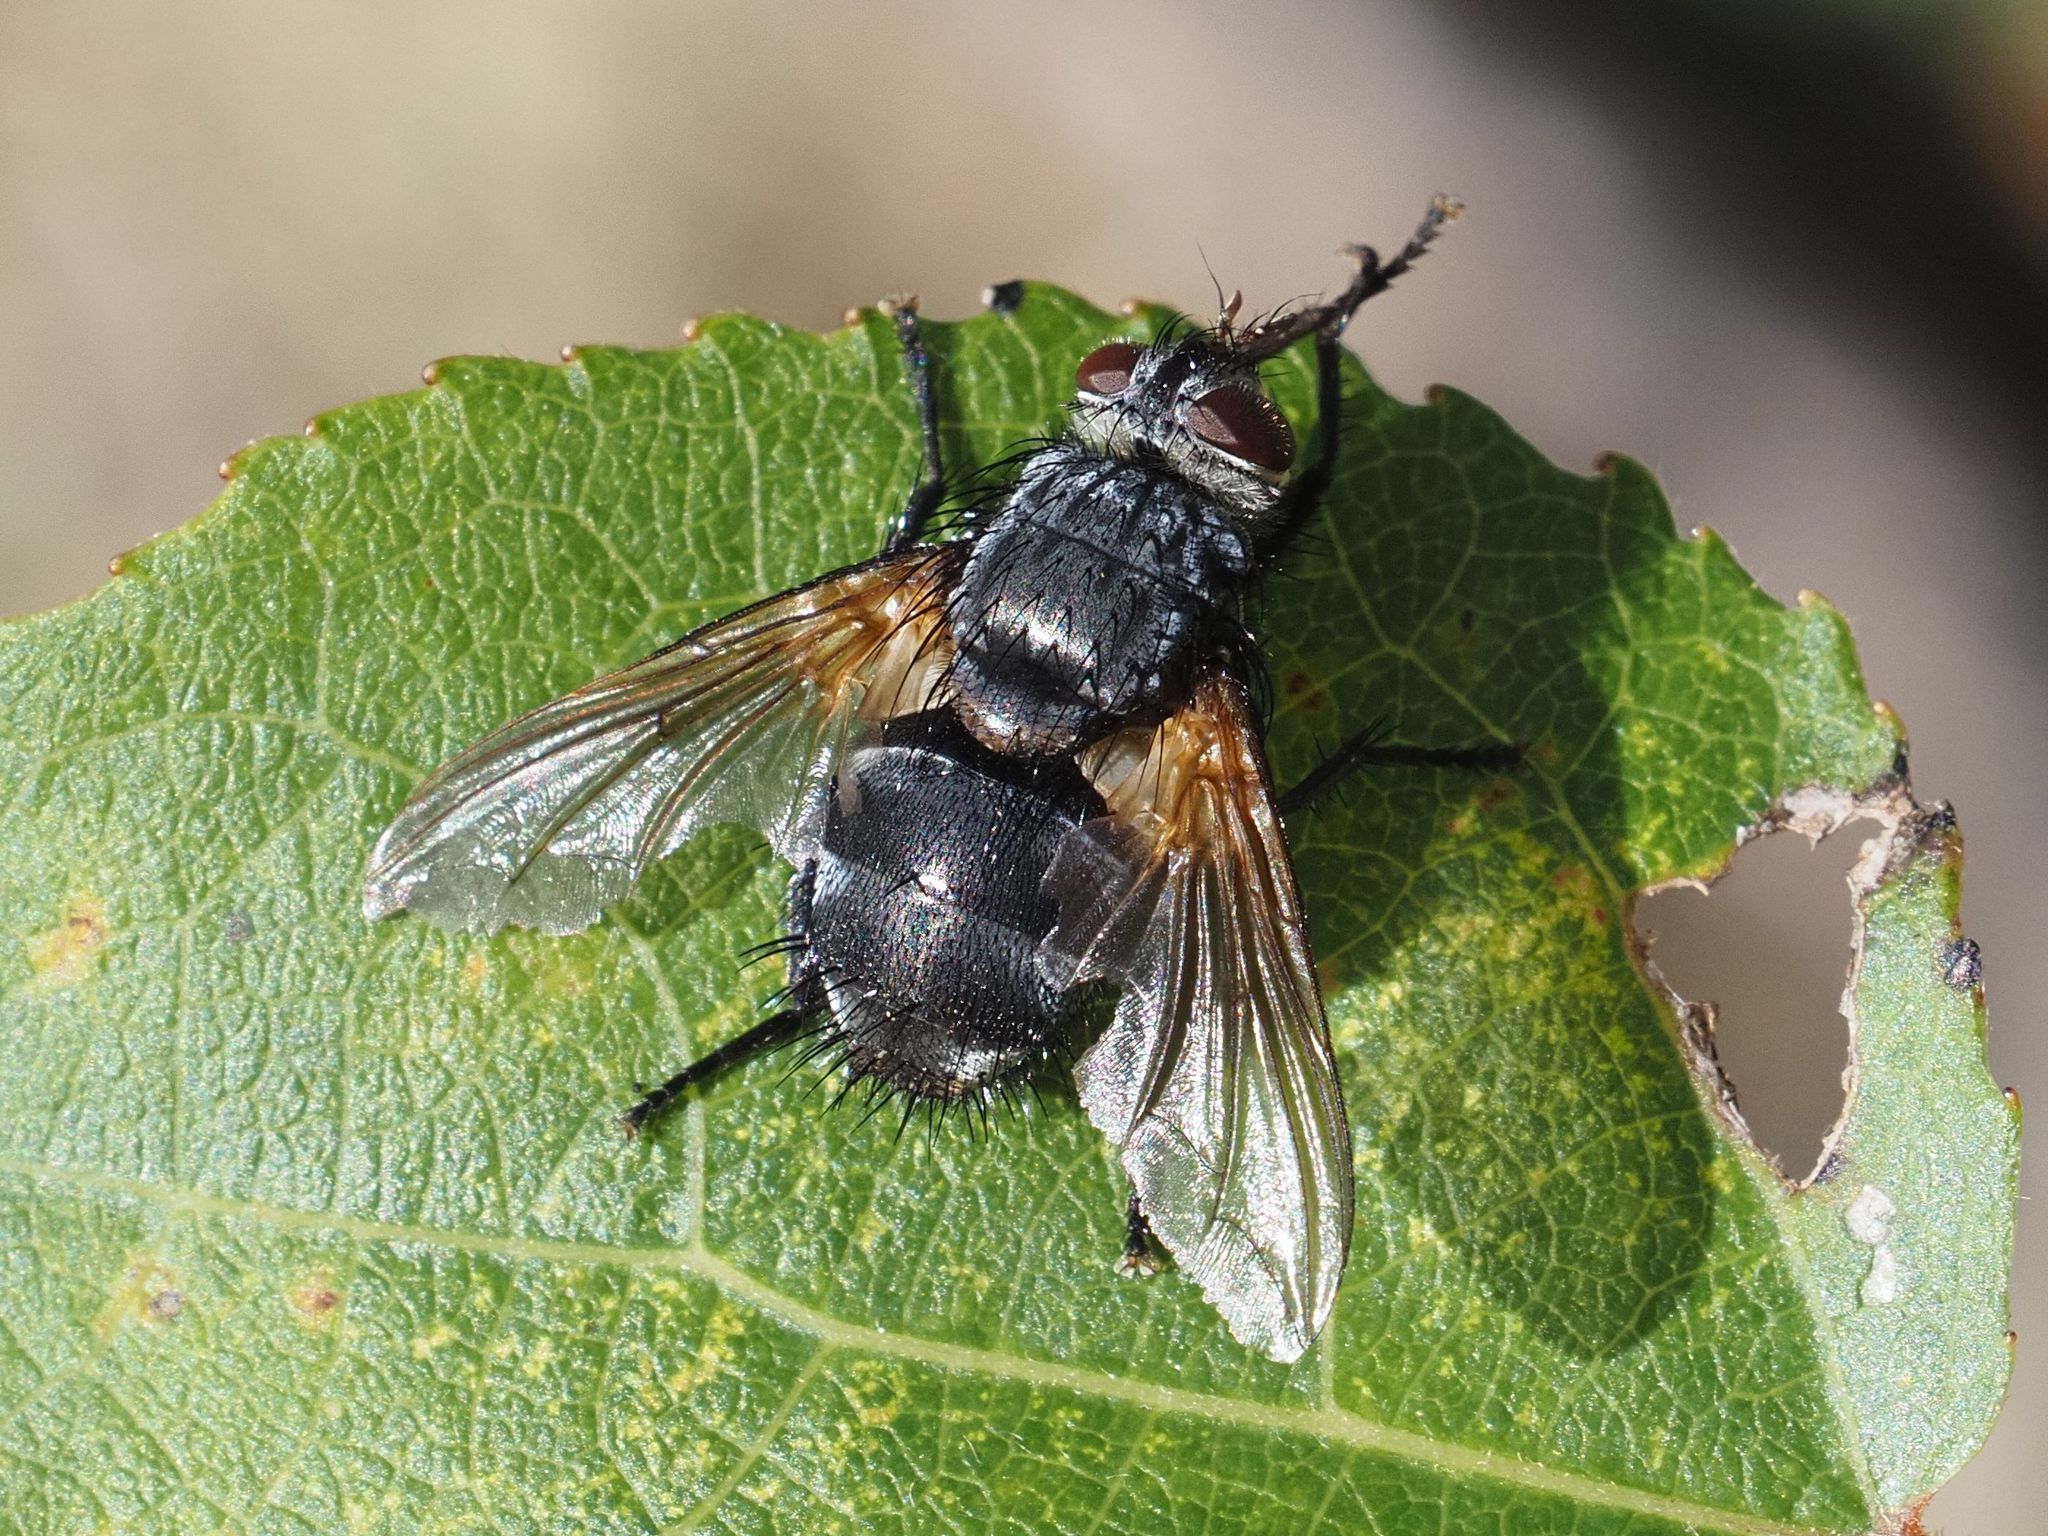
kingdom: Animalia
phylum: Arthropoda
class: Insecta
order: Diptera
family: Tachinidae
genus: Nemoraea
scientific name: Nemoraea pellucida
